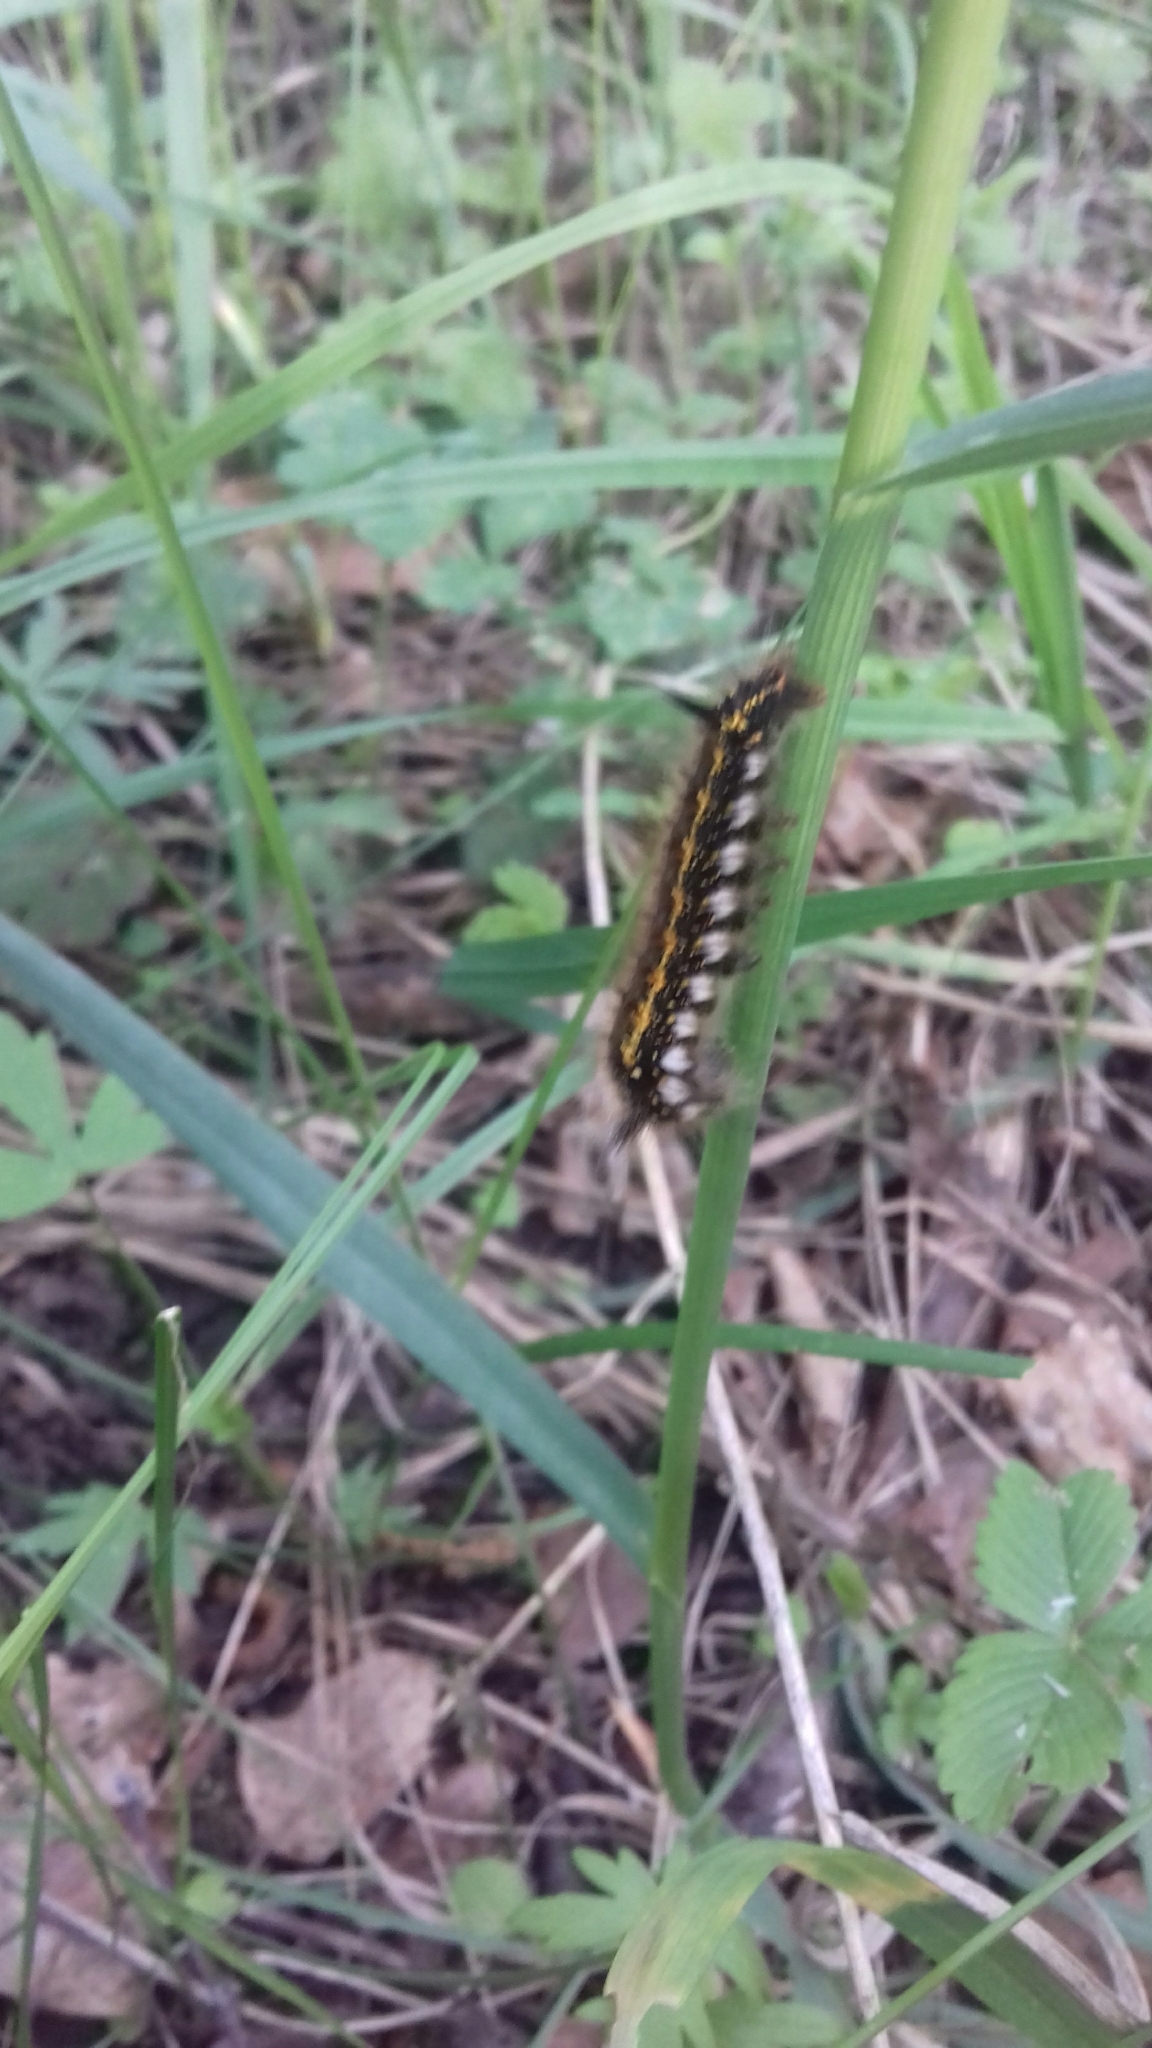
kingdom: Animalia
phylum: Arthropoda
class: Insecta
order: Lepidoptera
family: Lasiocampidae
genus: Euthrix
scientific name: Euthrix potatoria
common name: Drinker
